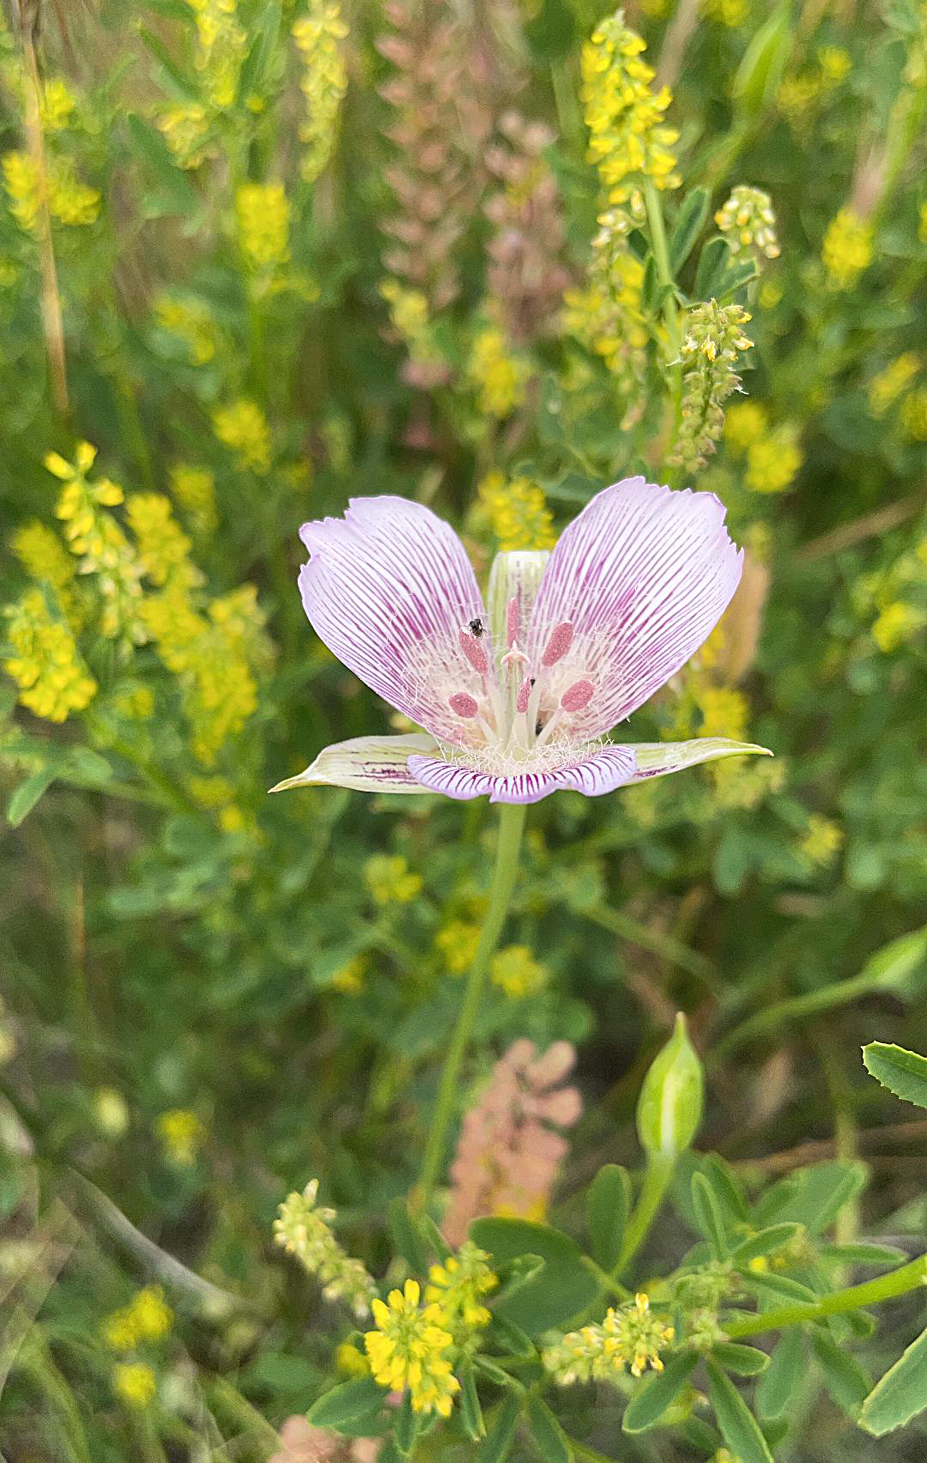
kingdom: Plantae
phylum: Tracheophyta
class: Liliopsida
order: Liliales
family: Liliaceae
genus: Calochortus
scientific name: Calochortus striatus
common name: Alkali mariposa-lily
